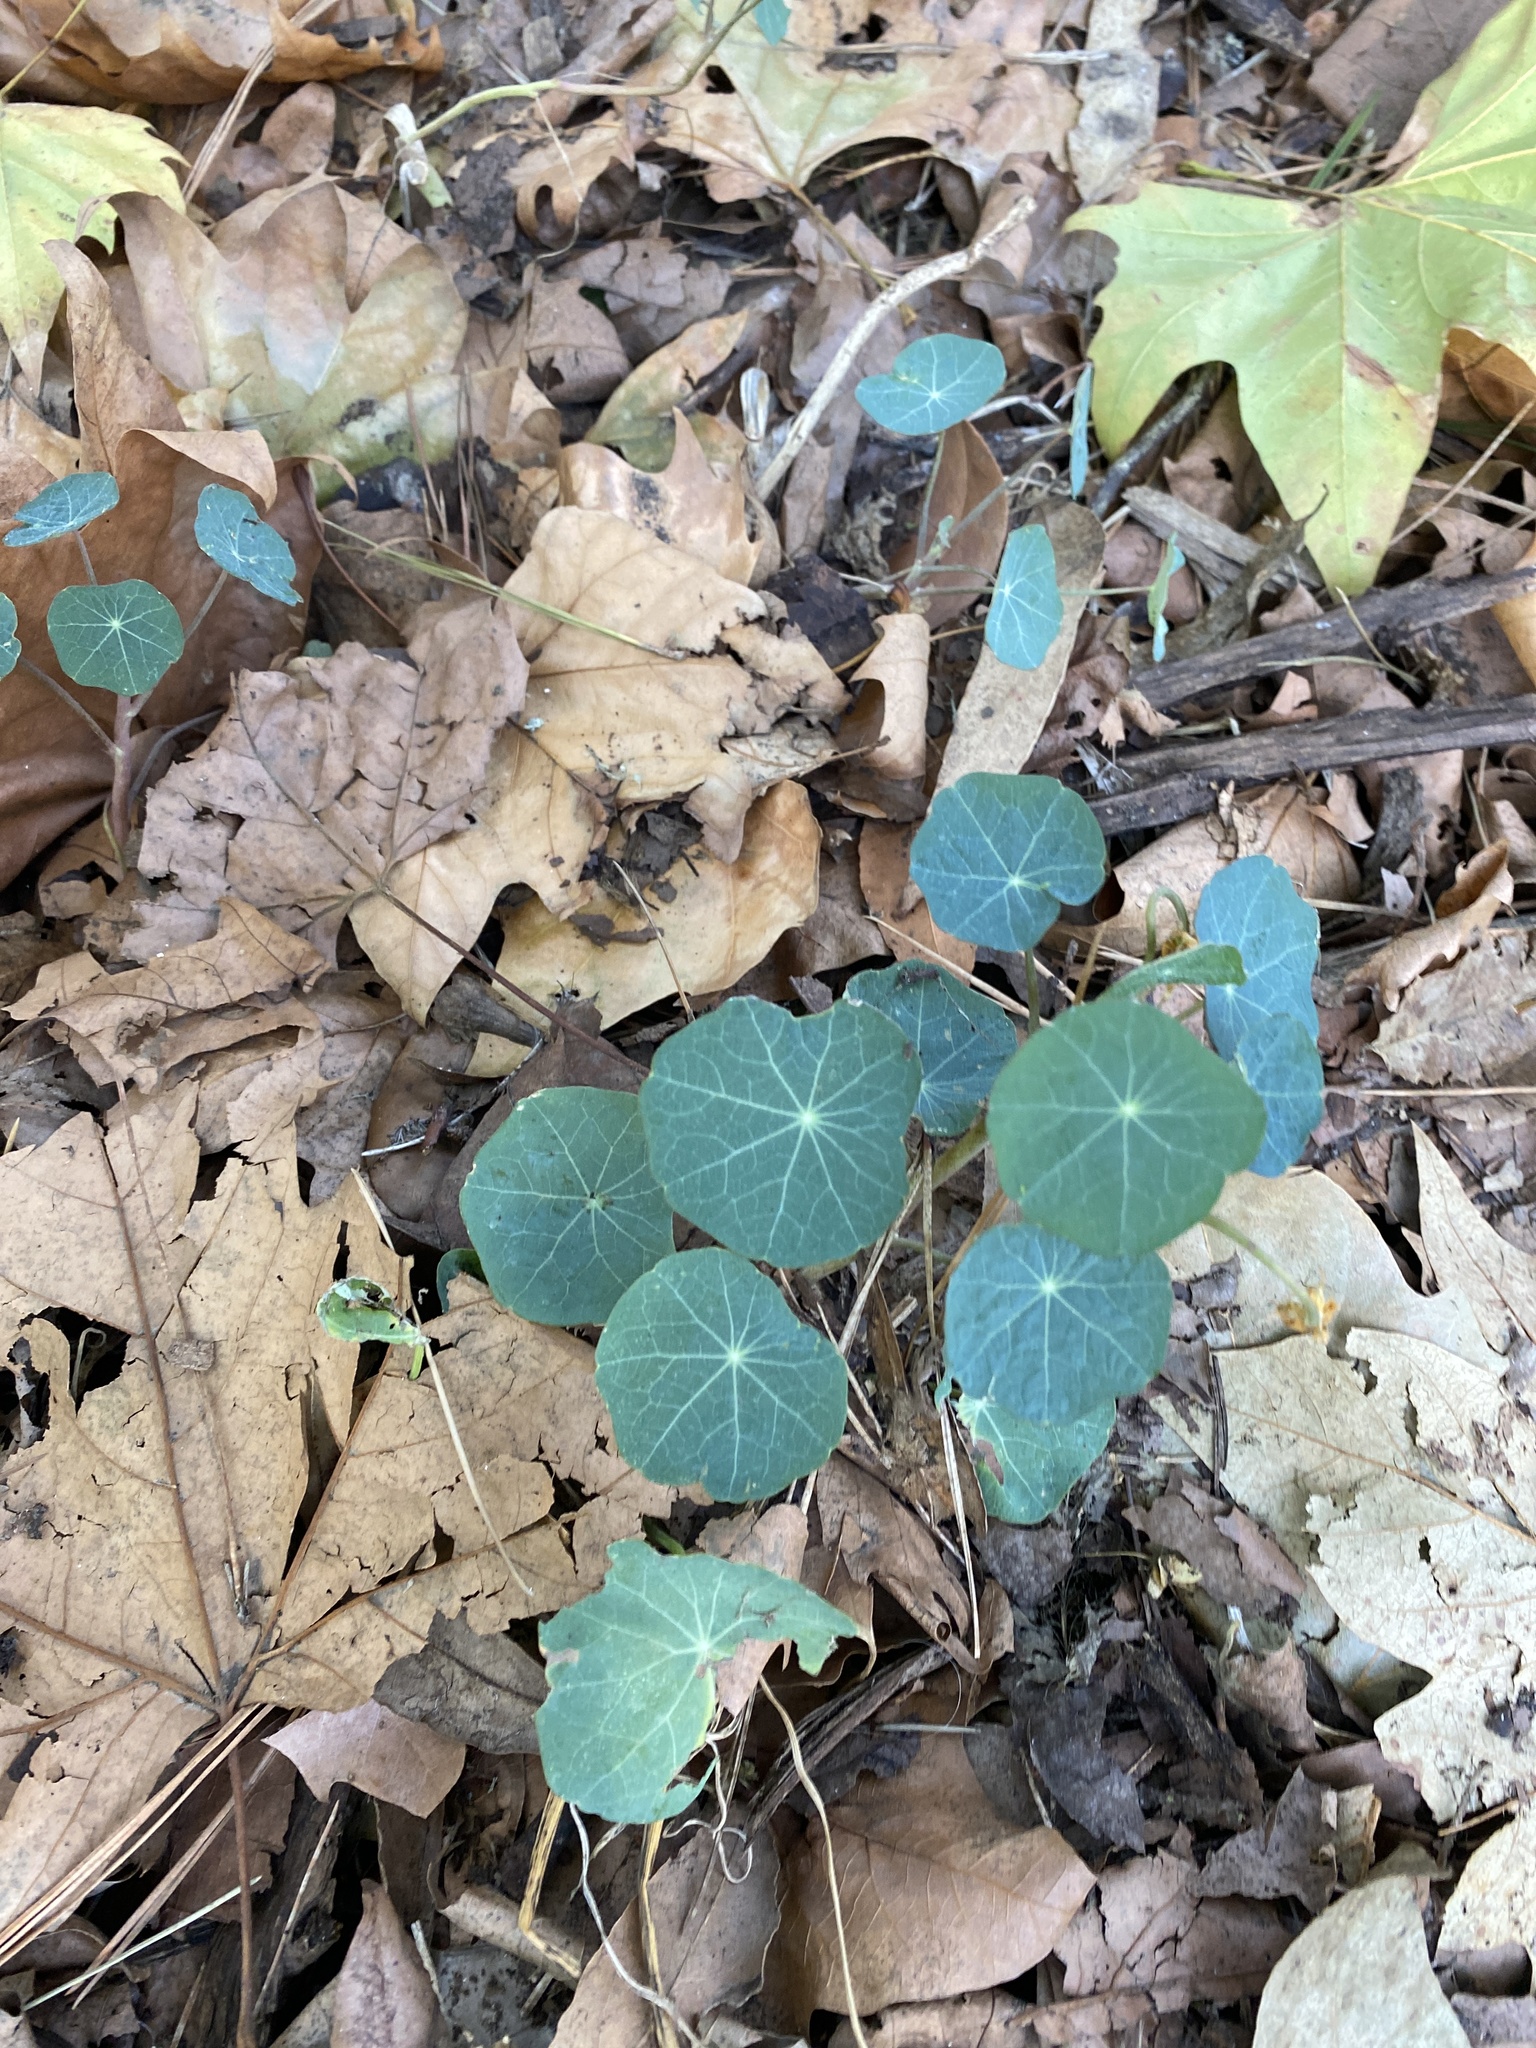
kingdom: Plantae
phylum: Tracheophyta
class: Magnoliopsida
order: Brassicales
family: Tropaeolaceae
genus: Tropaeolum
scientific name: Tropaeolum majus
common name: Nasturtium
